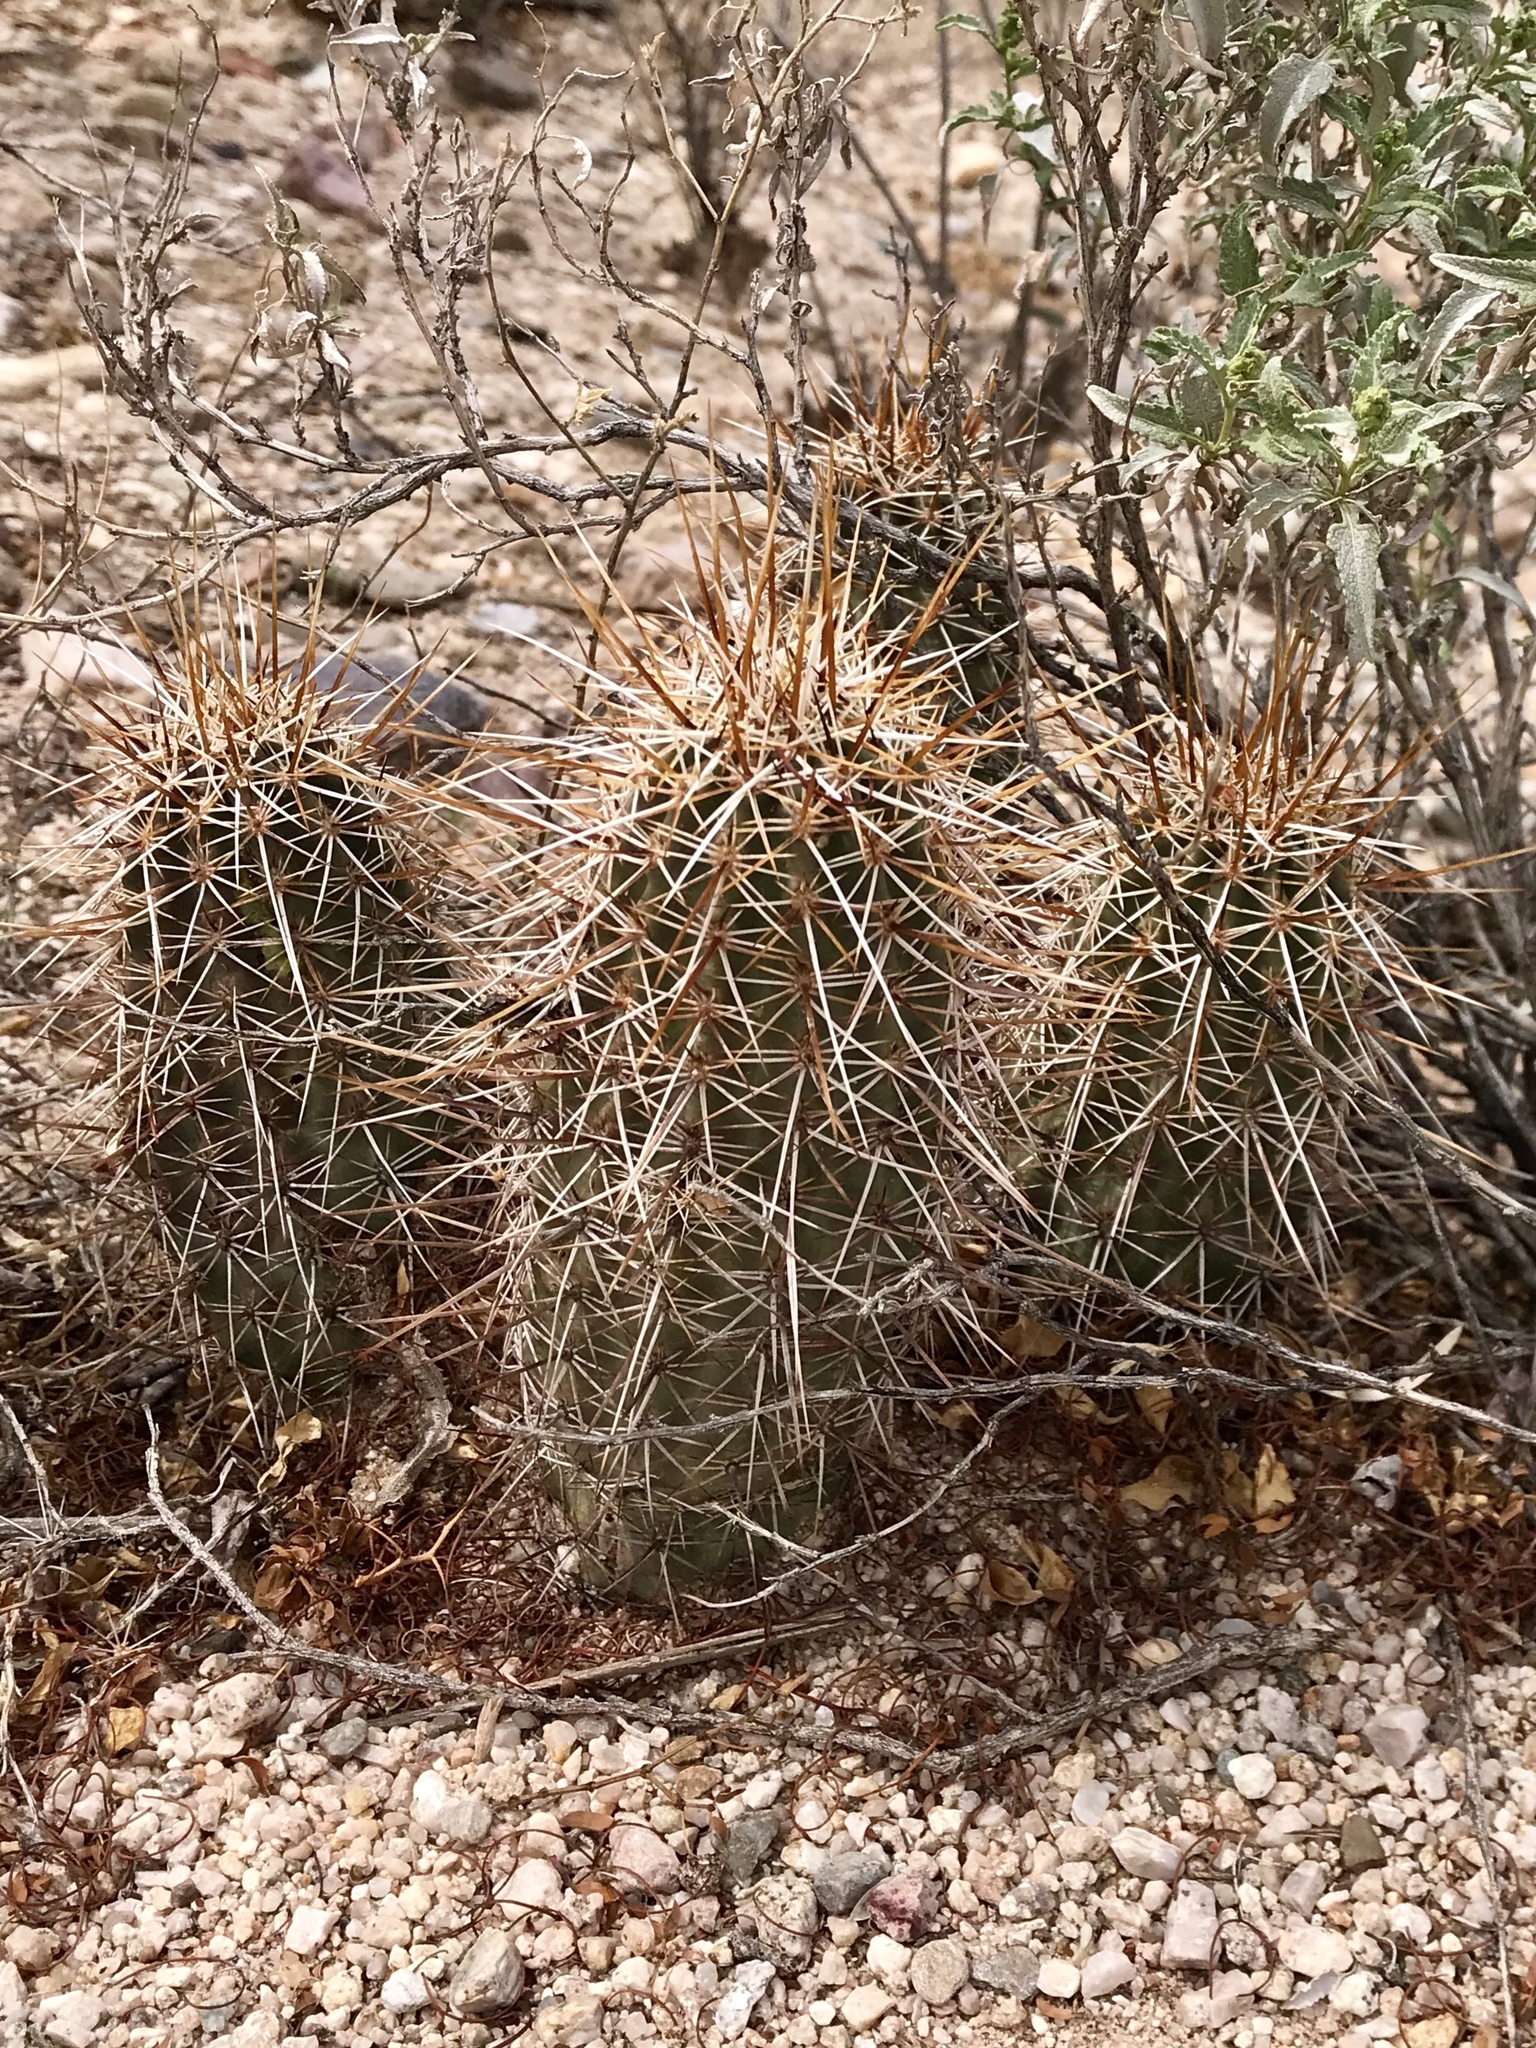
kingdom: Plantae
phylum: Tracheophyta
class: Magnoliopsida
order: Caryophyllales
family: Cactaceae
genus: Echinocereus
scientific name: Echinocereus fasciculatus
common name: Bundle hedgehog
